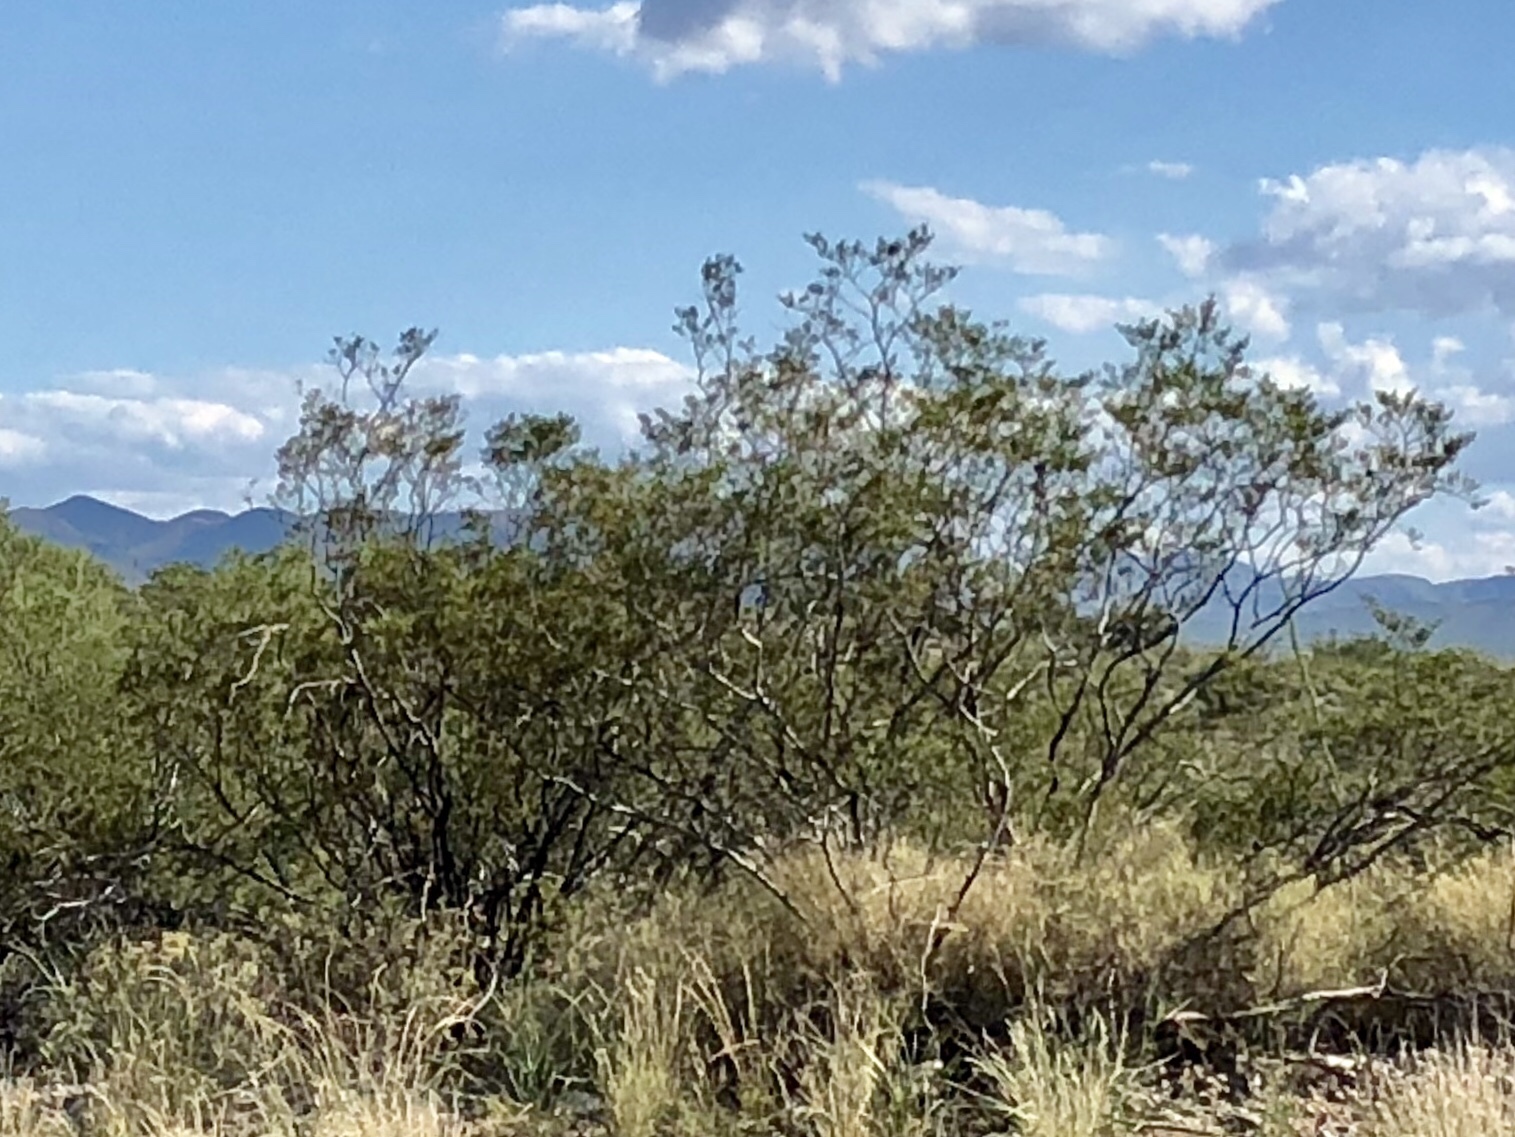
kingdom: Plantae
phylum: Tracheophyta
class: Magnoliopsida
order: Zygophyllales
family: Zygophyllaceae
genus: Larrea
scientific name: Larrea tridentata
